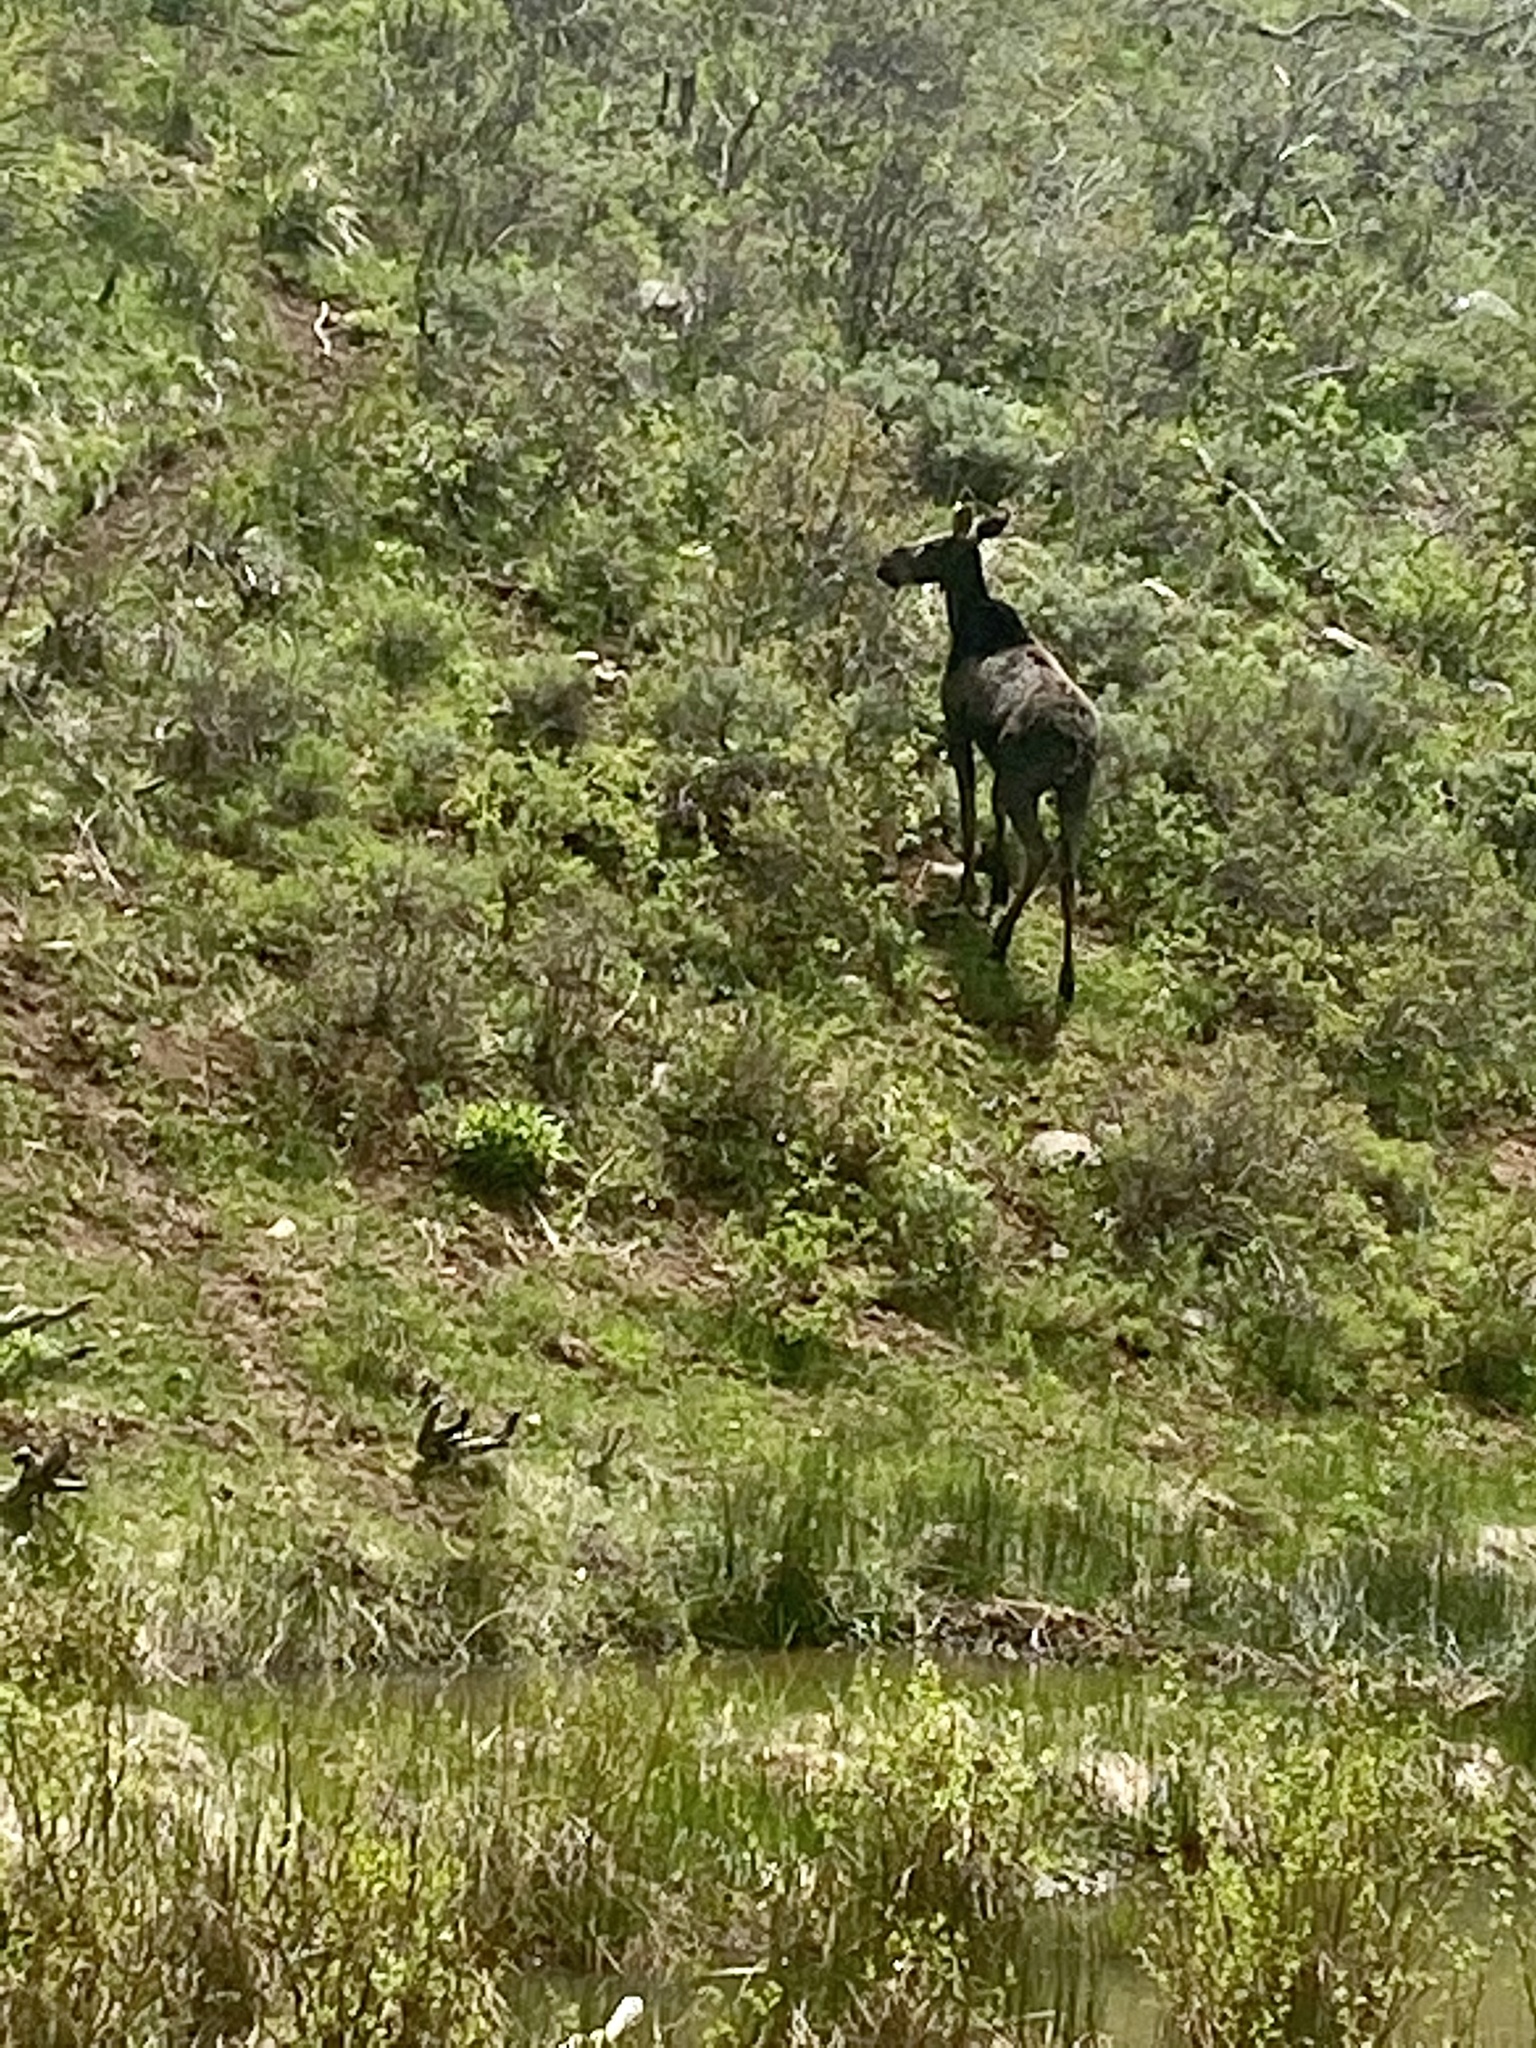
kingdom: Animalia
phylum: Chordata
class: Mammalia
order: Artiodactyla
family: Cervidae
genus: Alces
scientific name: Alces alces
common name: Moose
